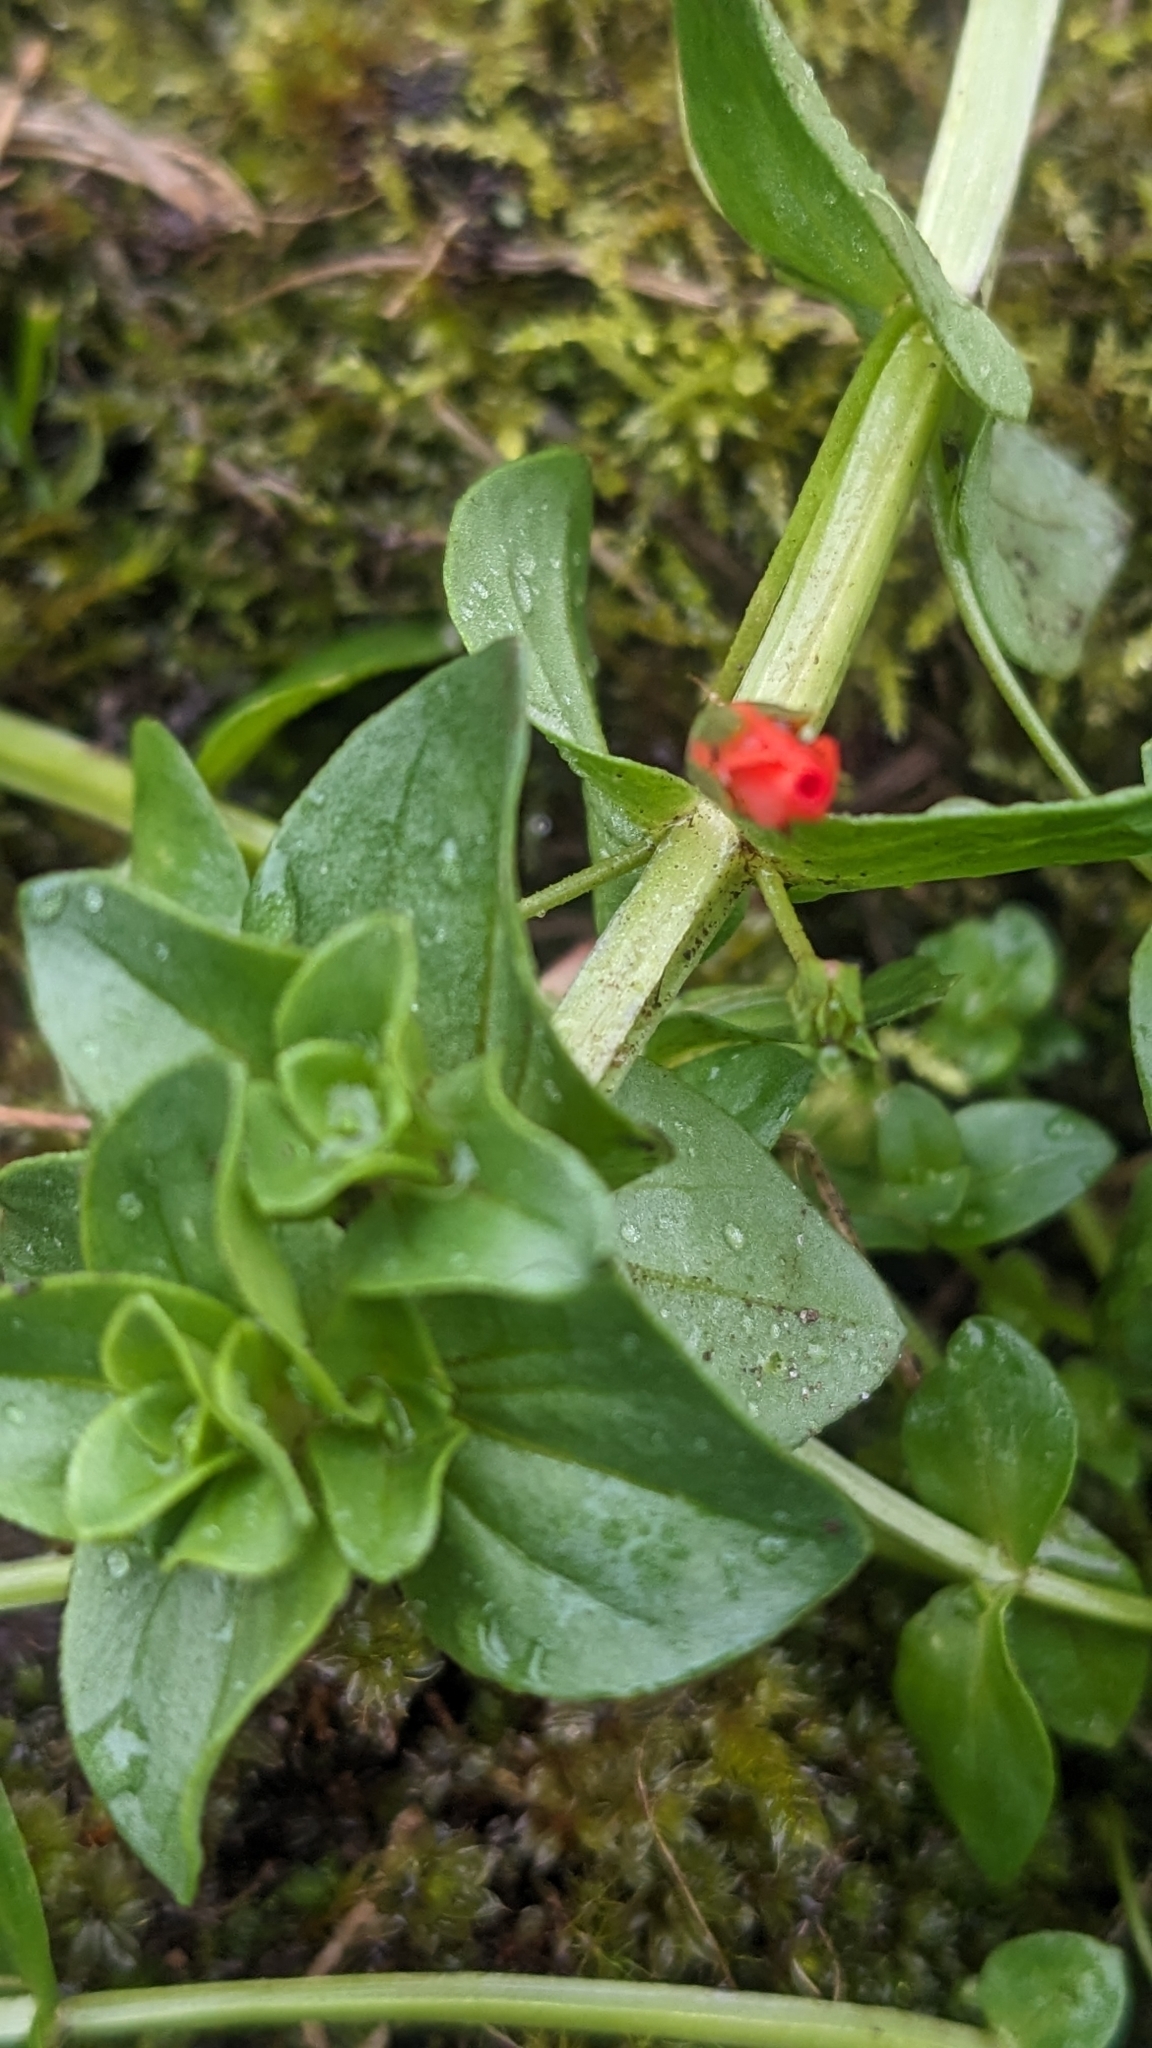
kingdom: Plantae
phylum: Tracheophyta
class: Magnoliopsida
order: Ericales
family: Primulaceae
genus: Lysimachia
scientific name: Lysimachia arvensis
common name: Scarlet pimpernel
